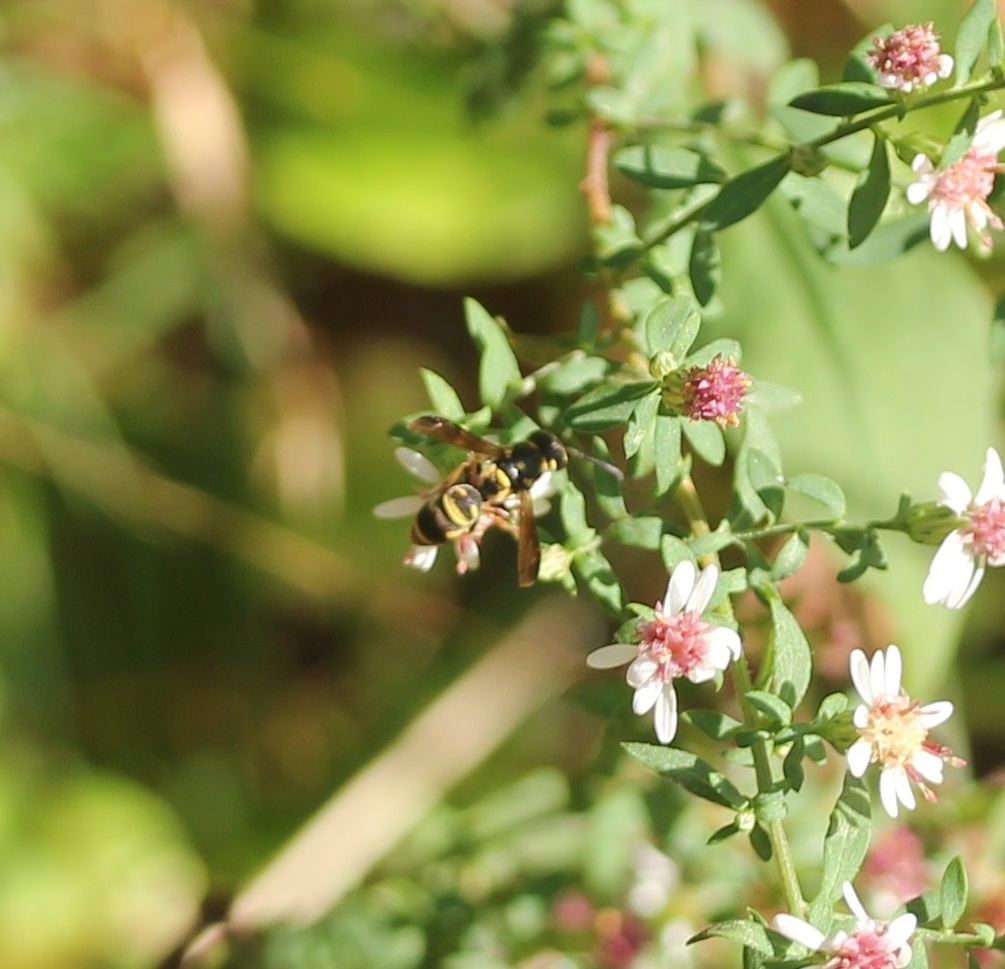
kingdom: Animalia
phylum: Arthropoda
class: Insecta
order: Hymenoptera
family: Eumenidae
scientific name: Eumenidae
